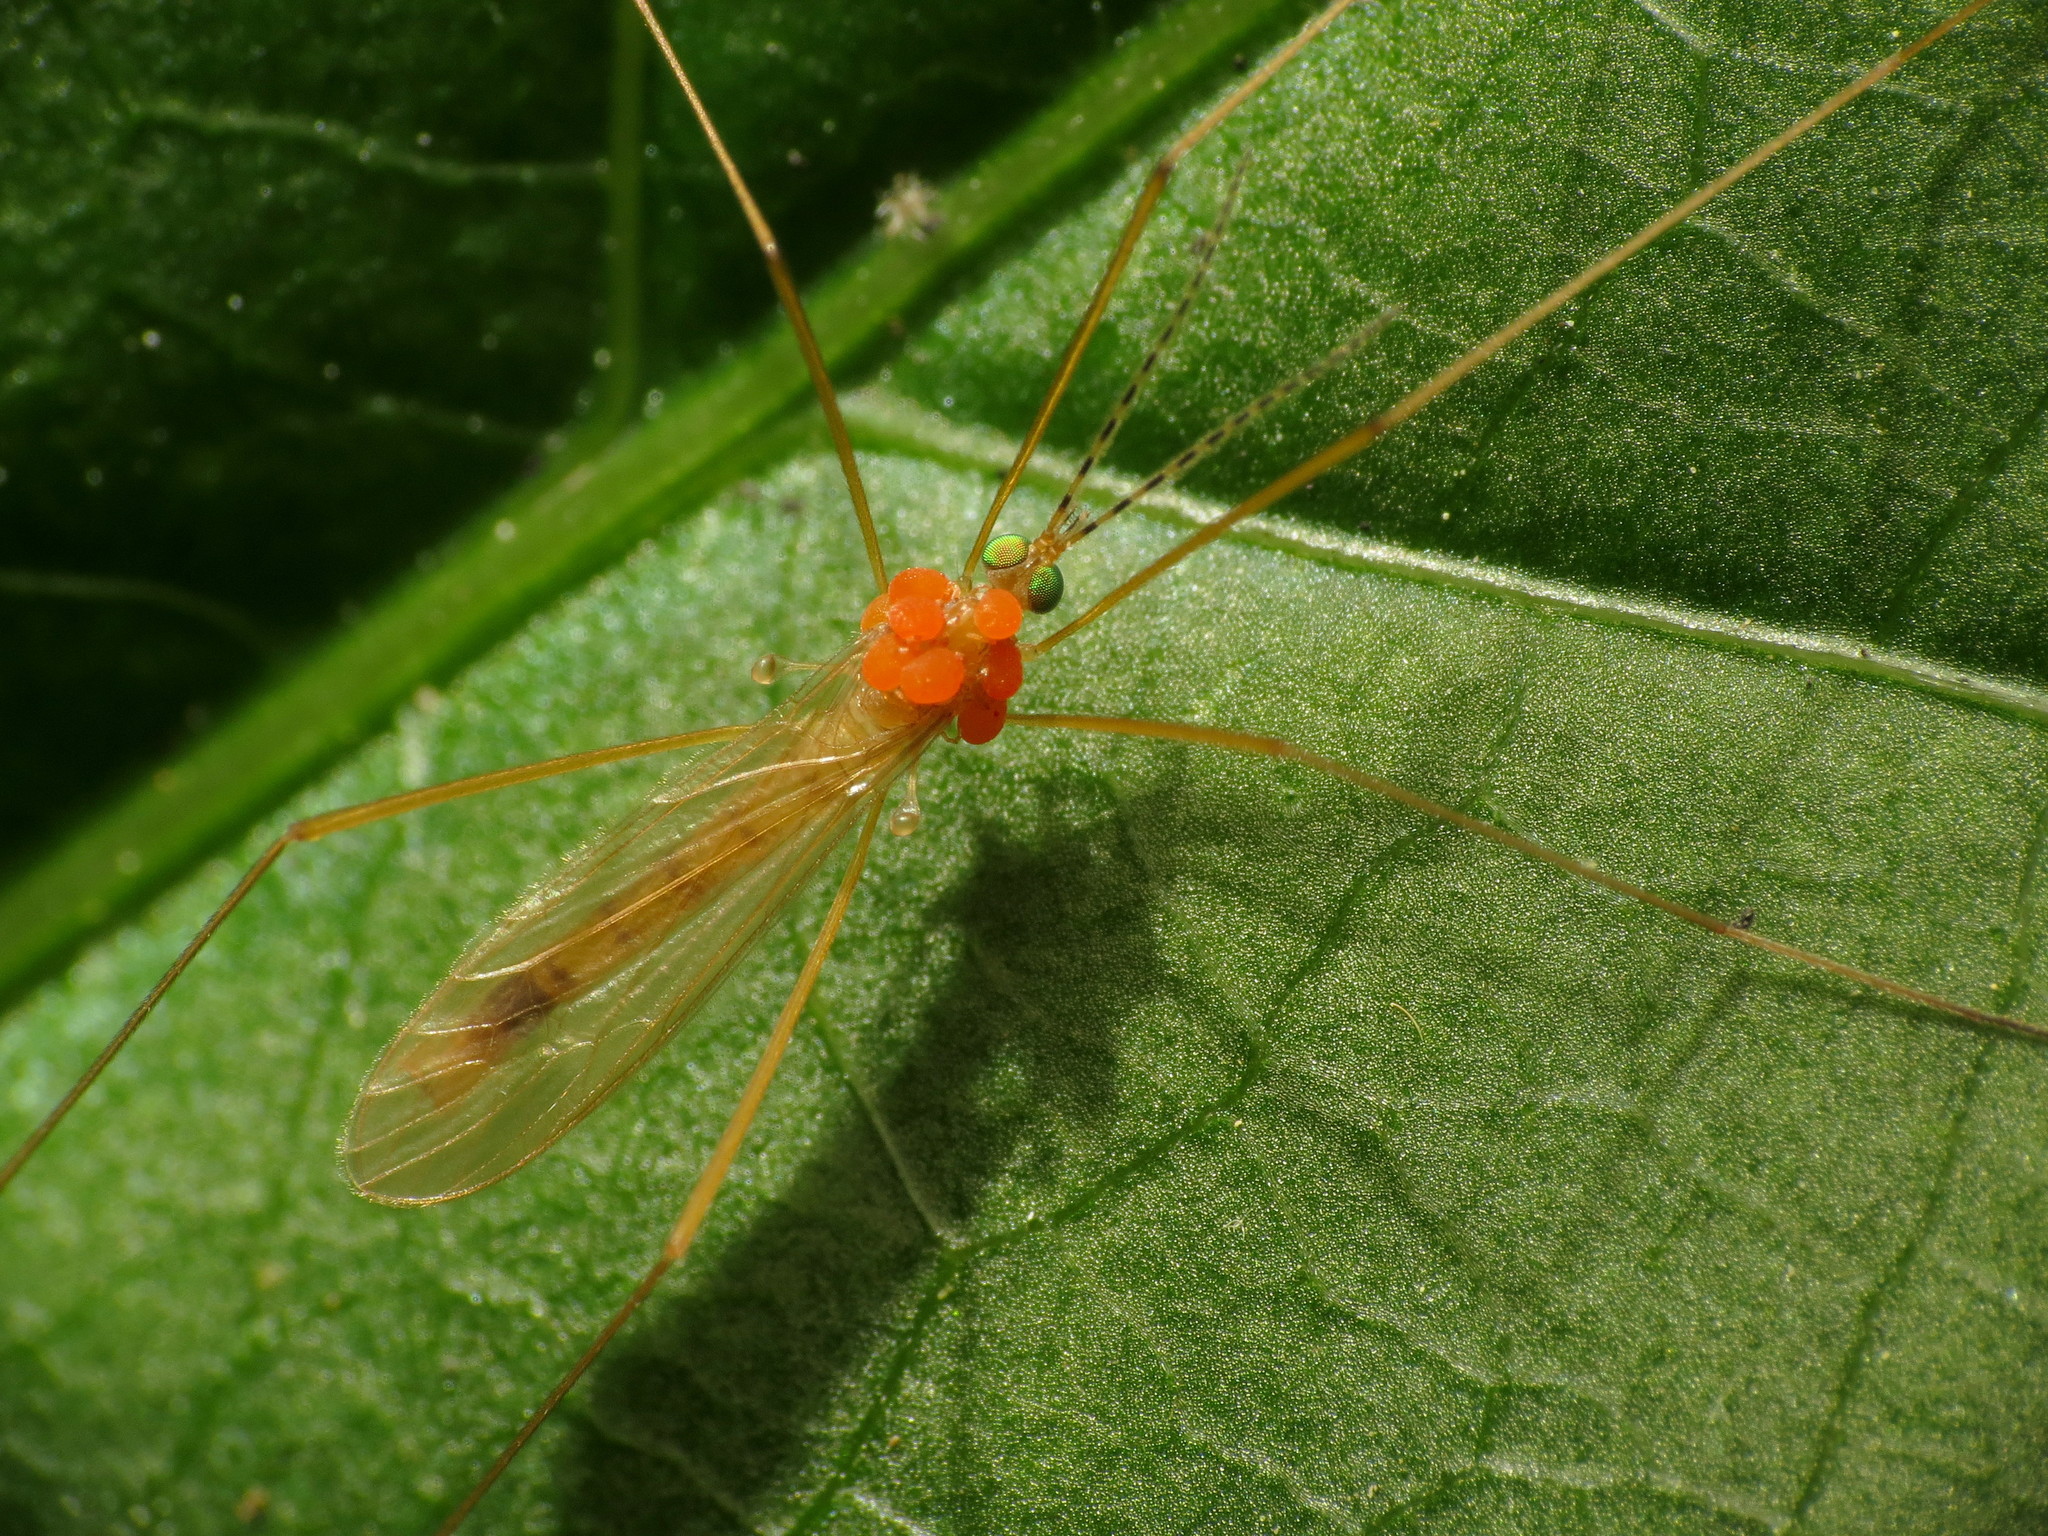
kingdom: Animalia
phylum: Arthropoda
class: Insecta
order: Diptera
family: Limoniidae
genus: Atarba
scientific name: Atarba picticornis
